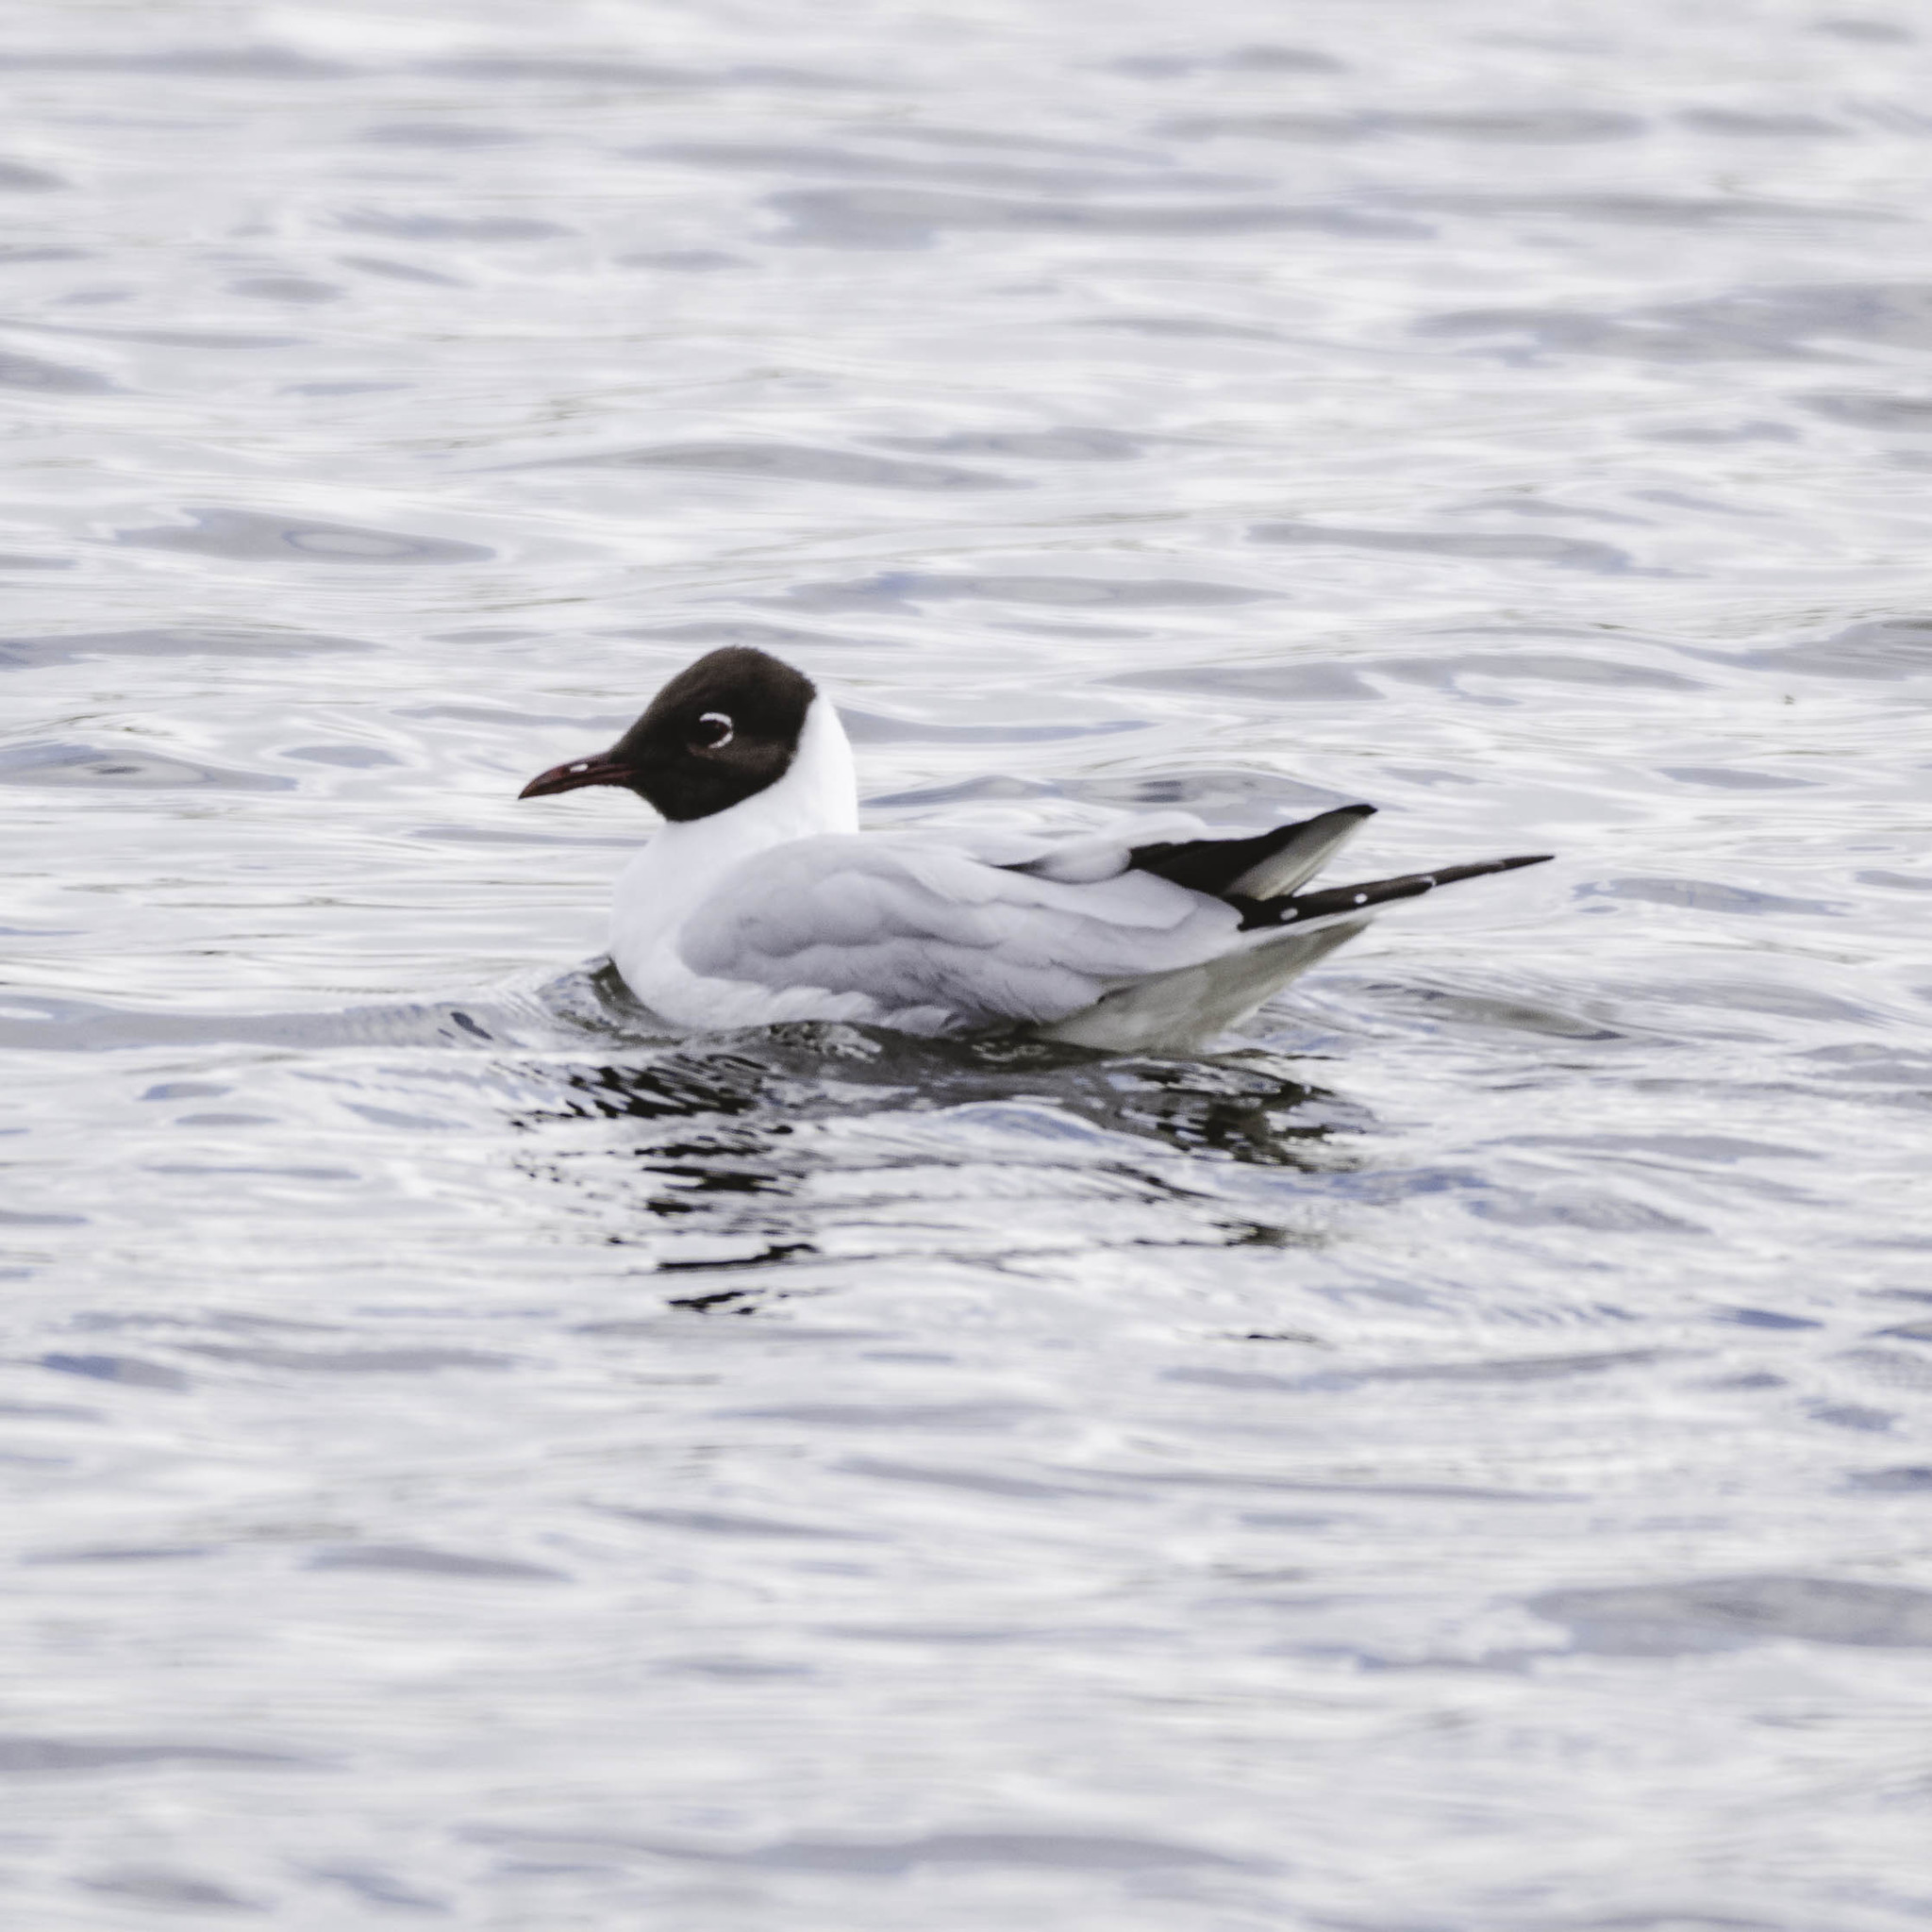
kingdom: Animalia
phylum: Chordata
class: Aves
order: Charadriiformes
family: Laridae
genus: Chroicocephalus
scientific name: Chroicocephalus ridibundus
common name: Black-headed gull
